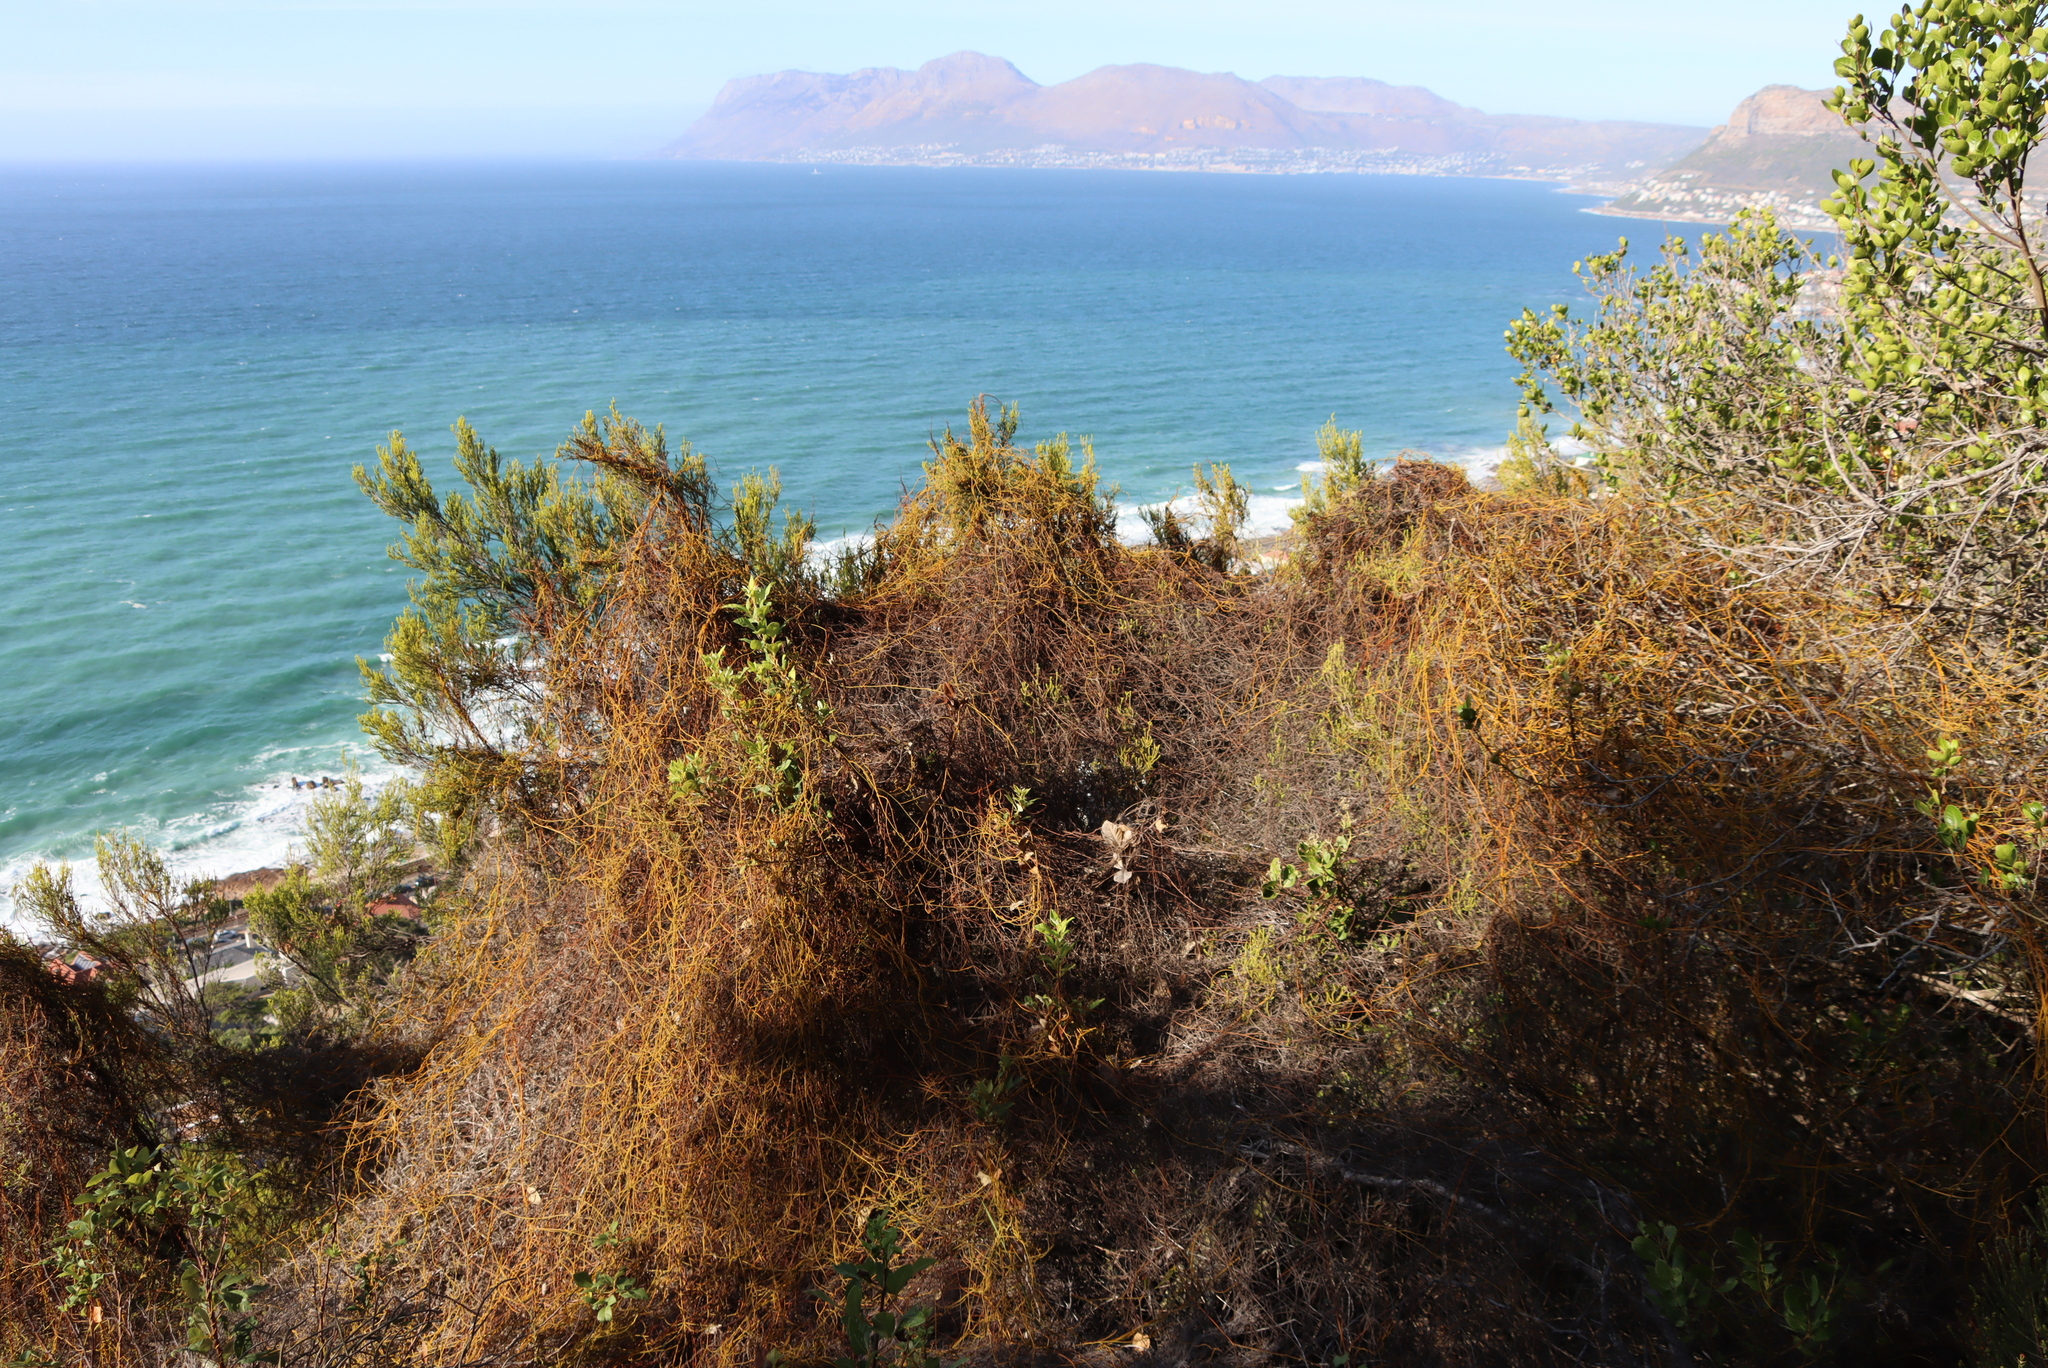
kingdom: Plantae
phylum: Tracheophyta
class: Magnoliopsida
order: Laurales
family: Lauraceae
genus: Cassytha
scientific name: Cassytha ciliolata
